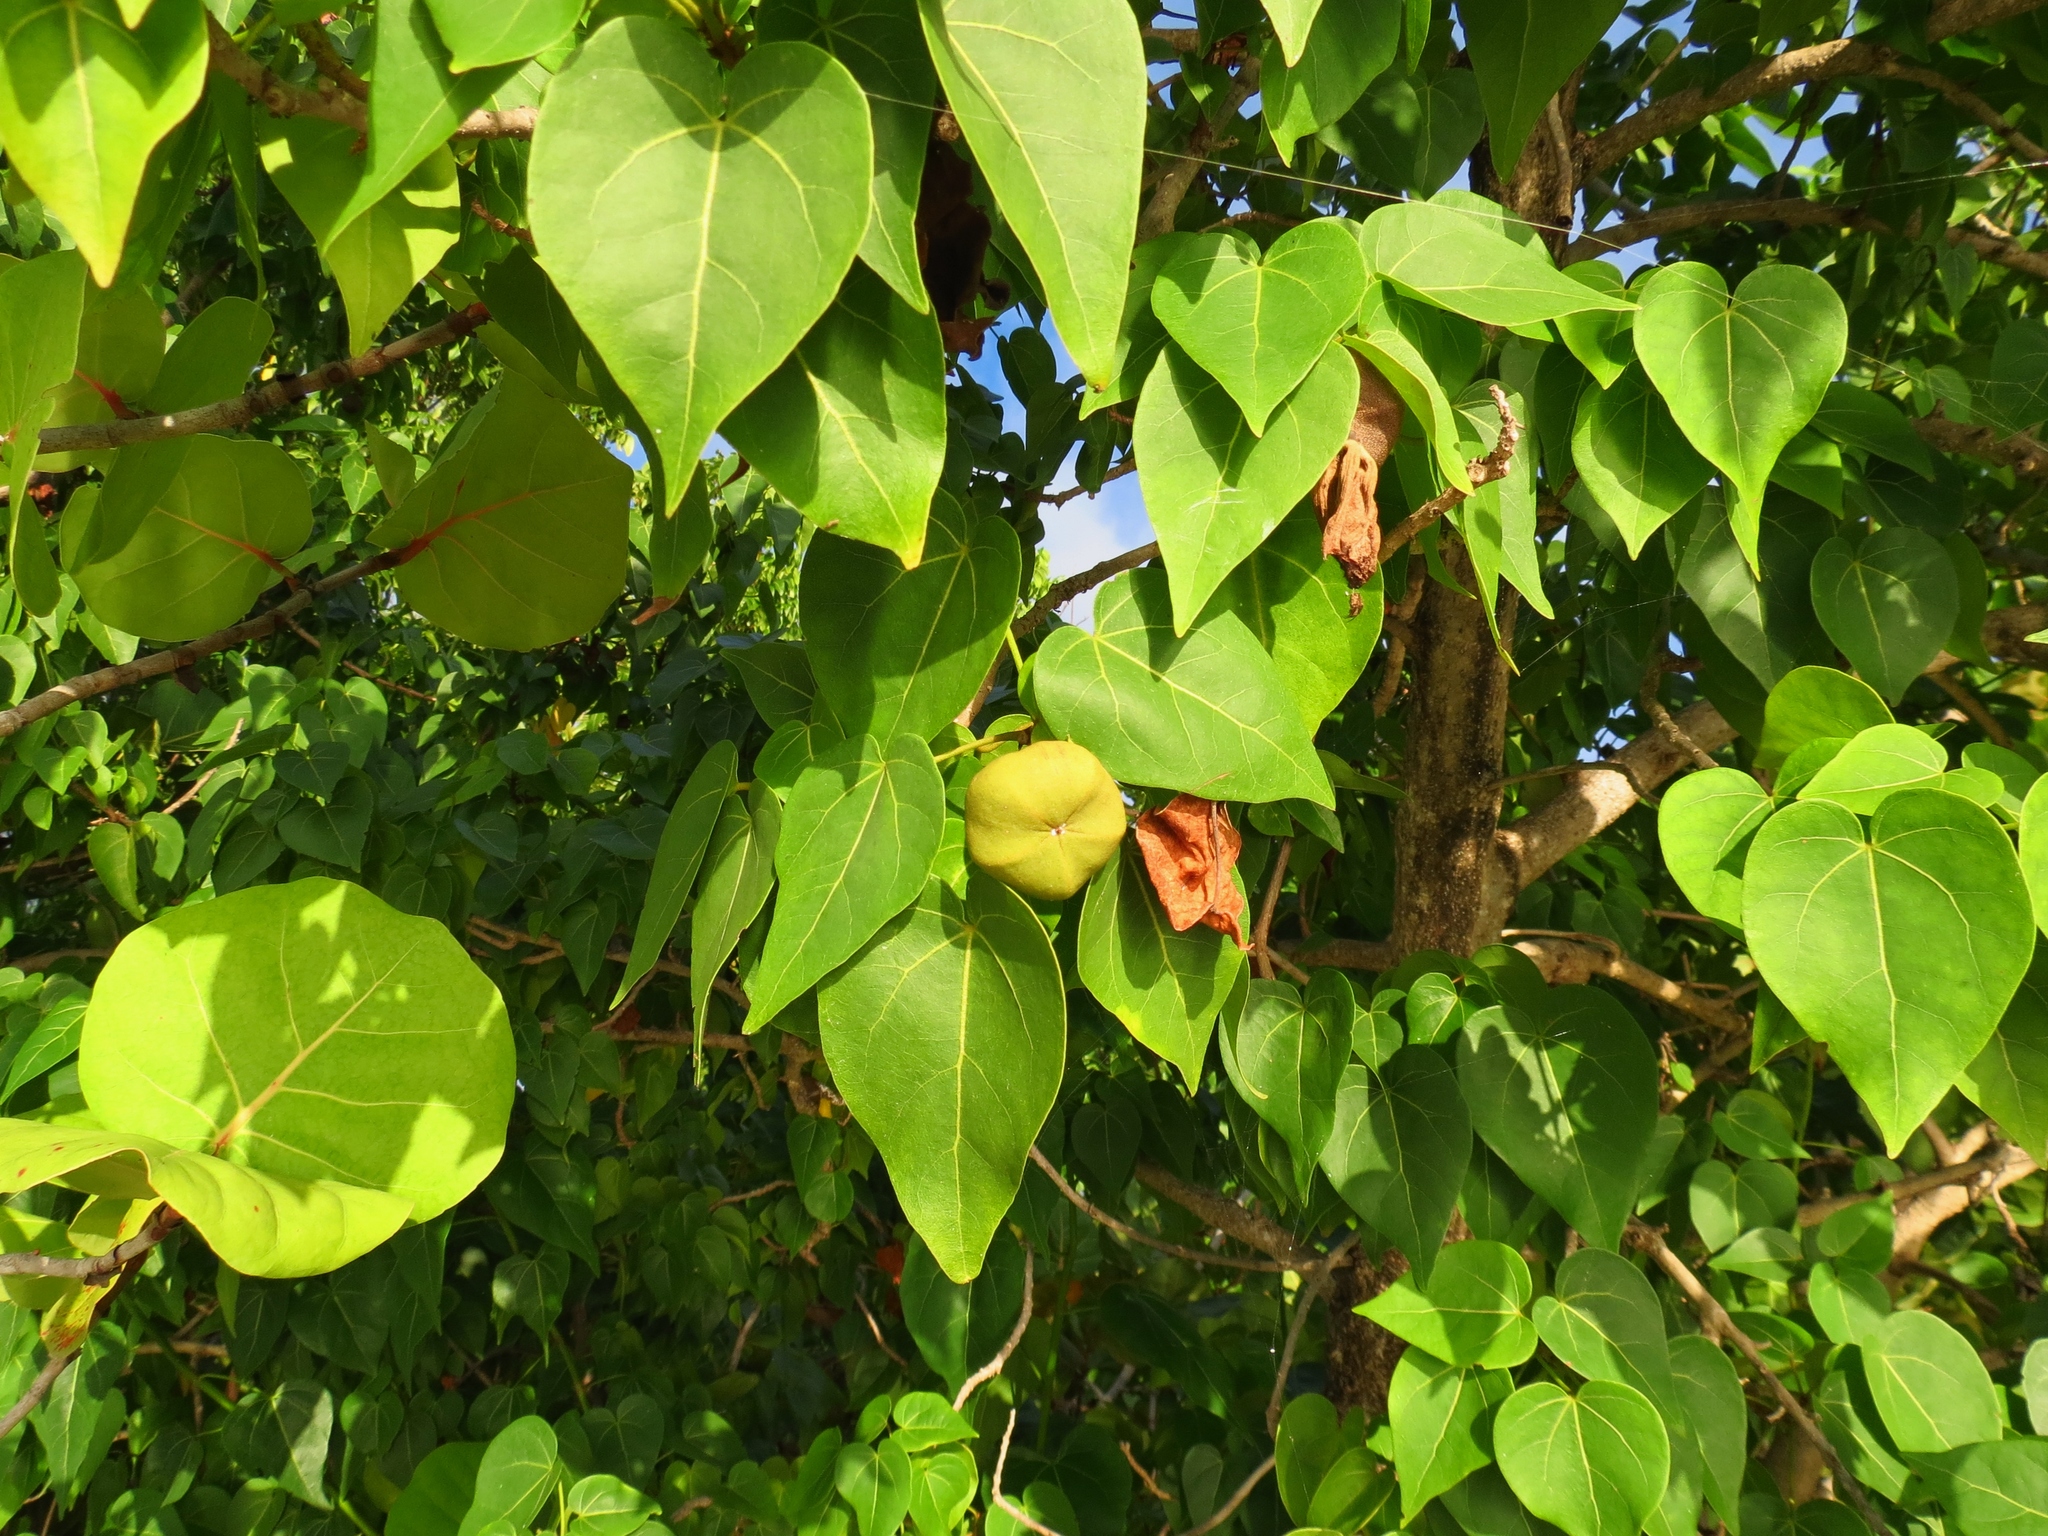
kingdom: Plantae
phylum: Tracheophyta
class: Magnoliopsida
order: Malvales
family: Malvaceae
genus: Thespesia
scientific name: Thespesia populnea
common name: Seaside mahoe
